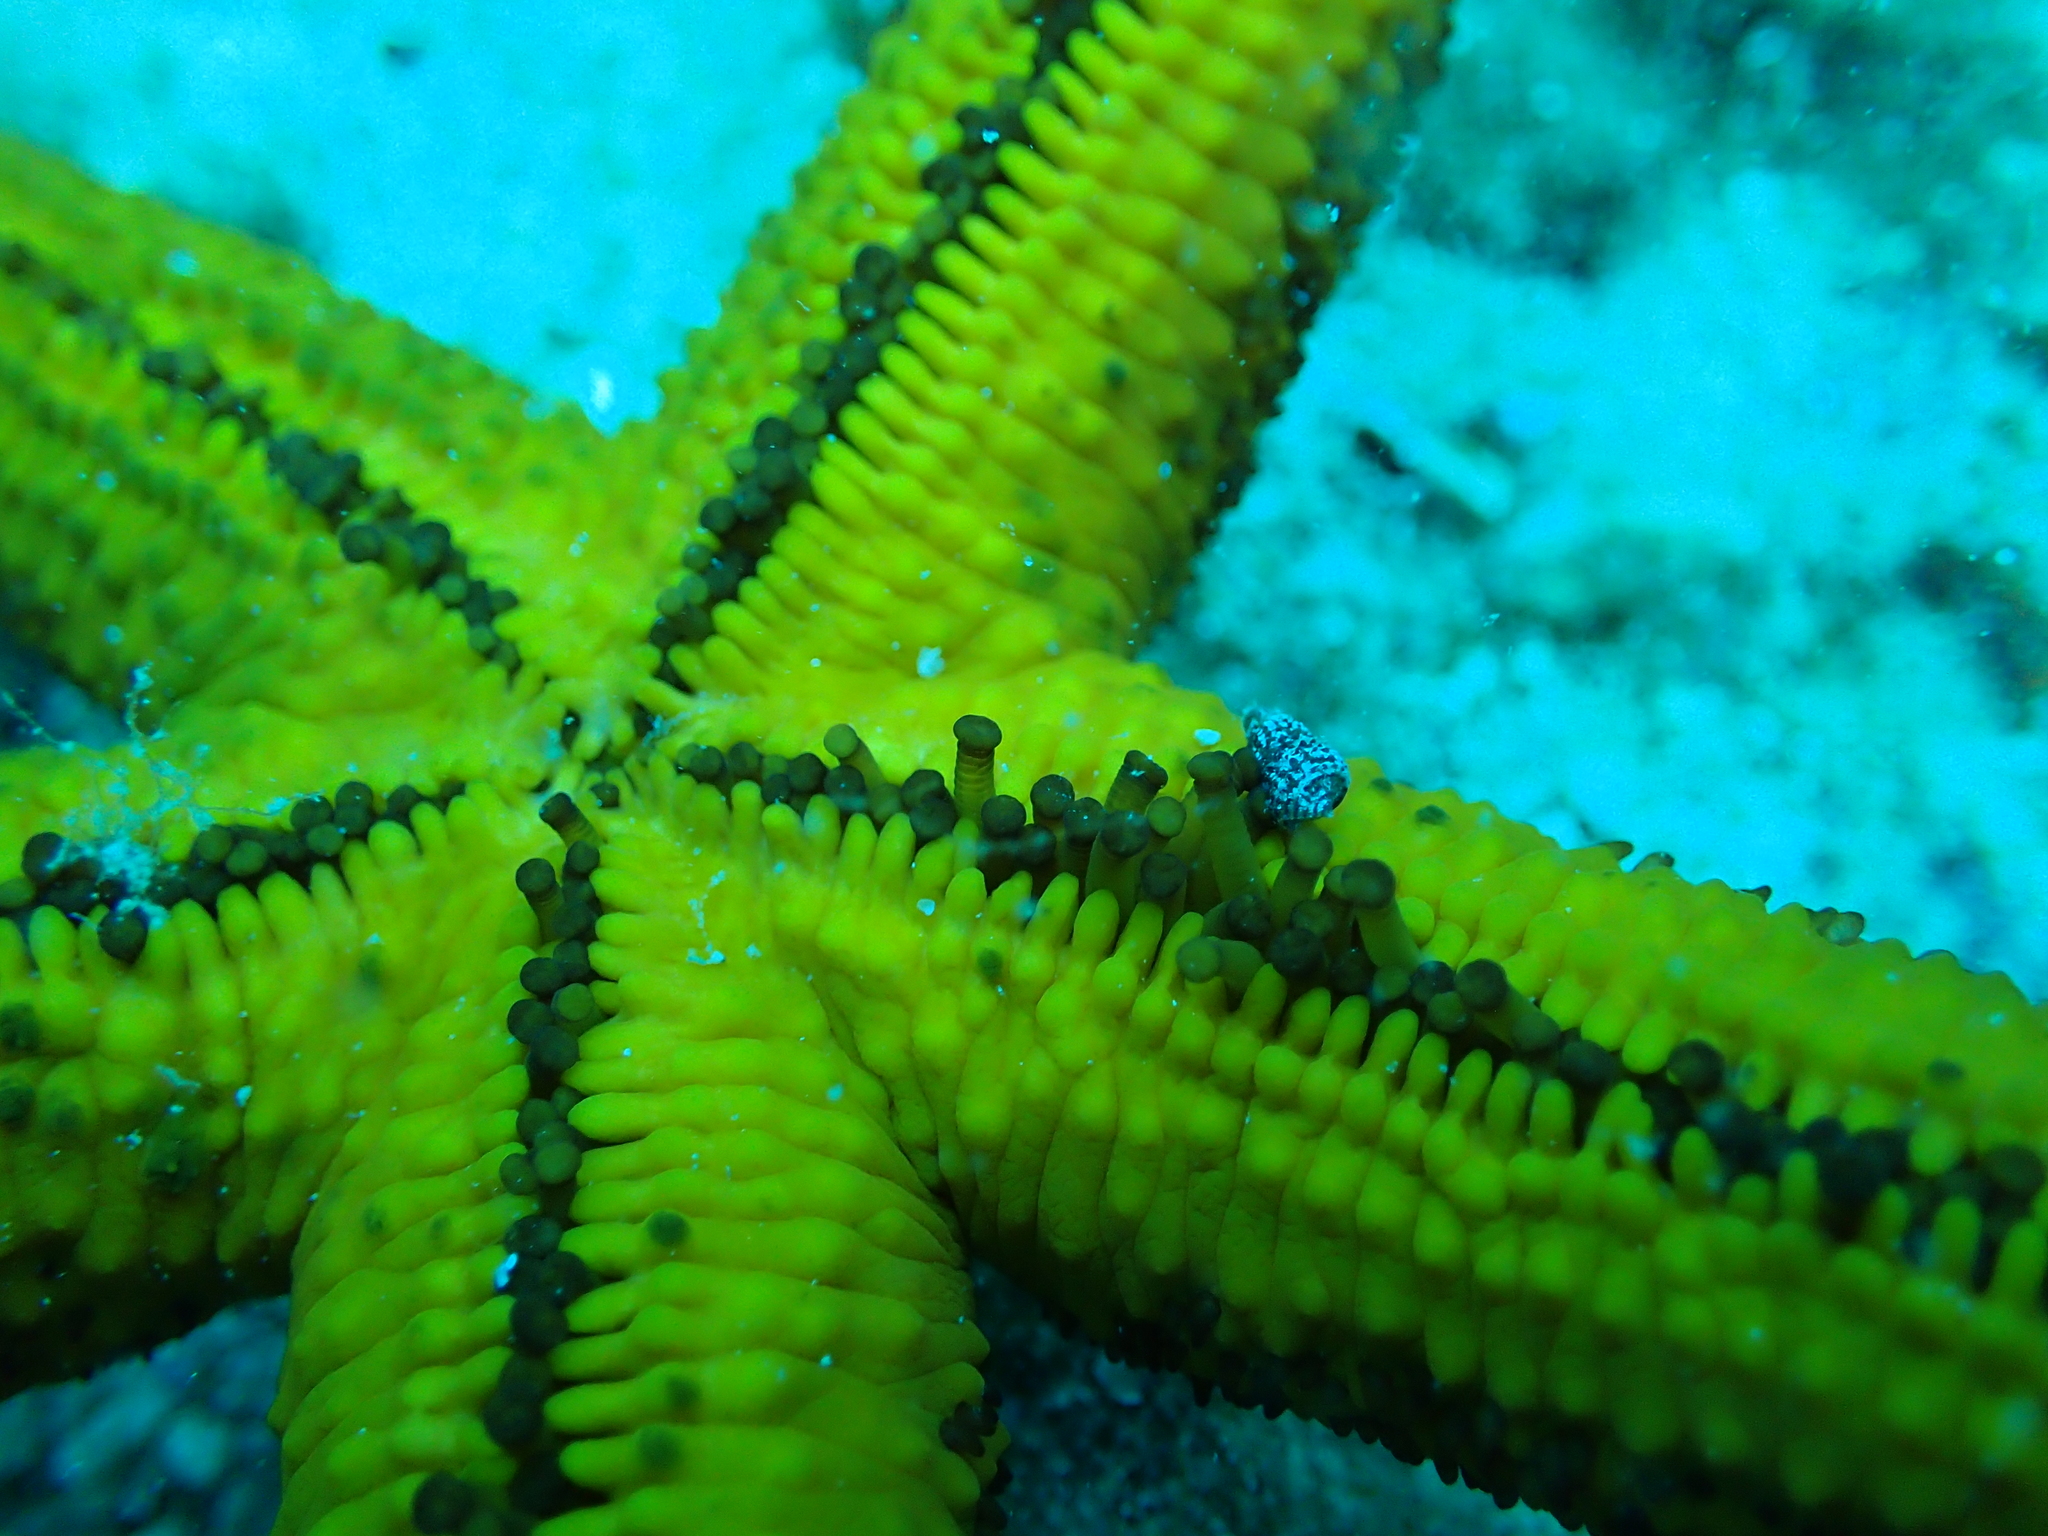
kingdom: Animalia
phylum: Echinodermata
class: Asteroidea
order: Spinulosida
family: Echinasteridae
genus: Echinaster
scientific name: Echinaster sepositus
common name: Red starfish
